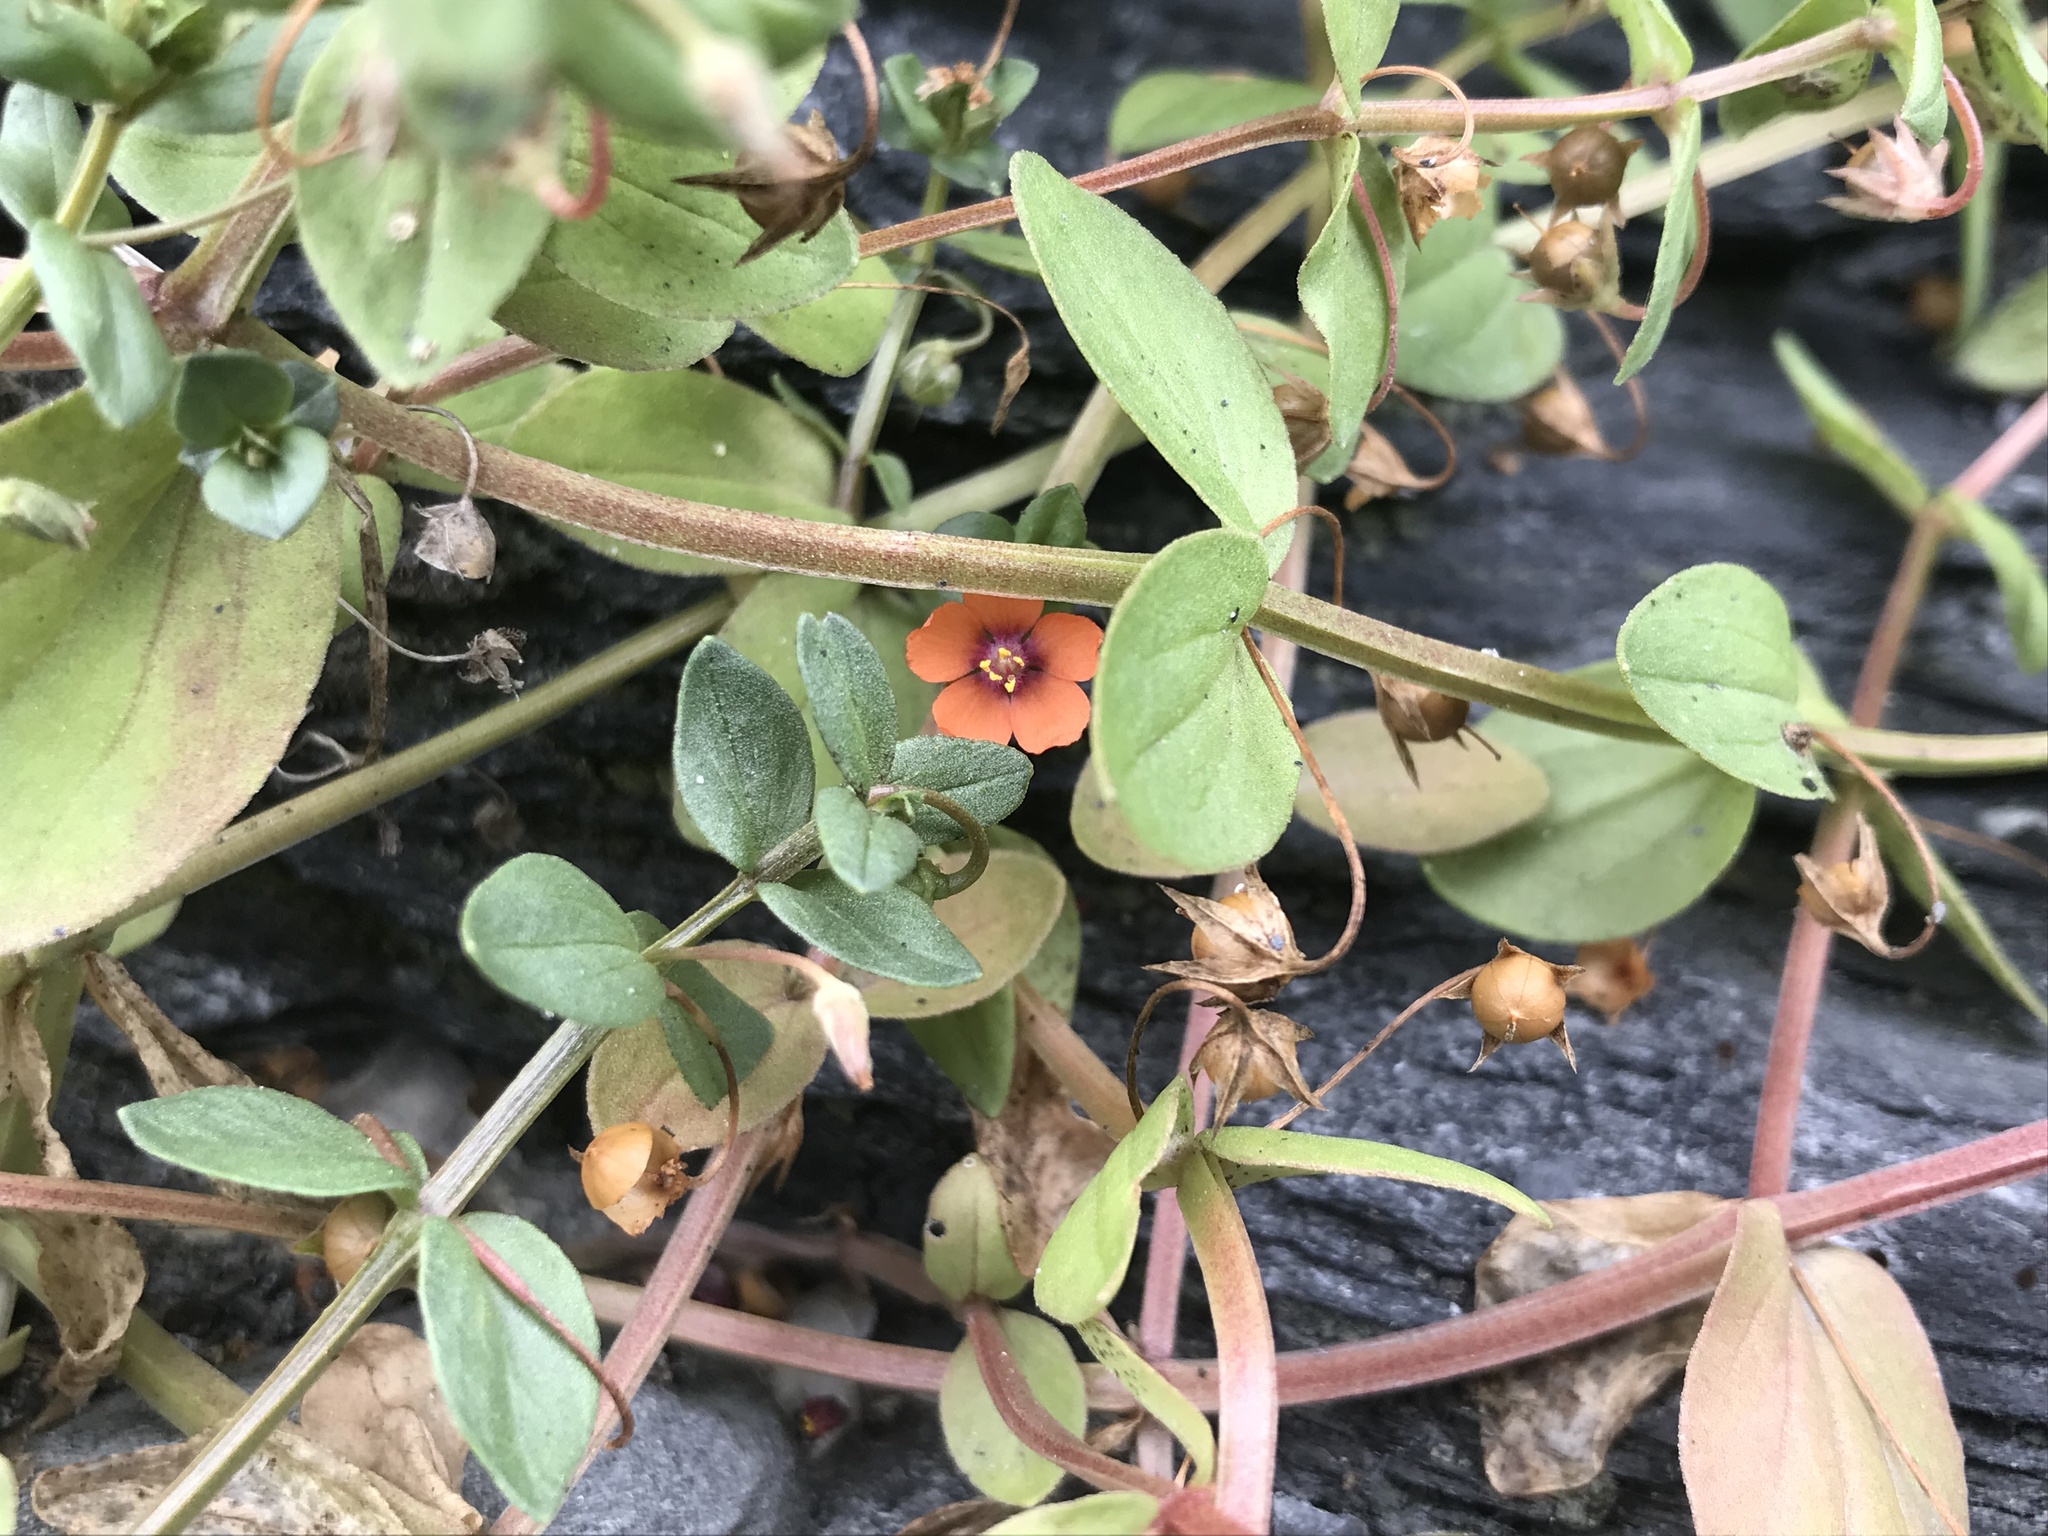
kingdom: Plantae
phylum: Tracheophyta
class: Magnoliopsida
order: Ericales
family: Primulaceae
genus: Lysimachia
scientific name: Lysimachia arvensis
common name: Scarlet pimpernel
